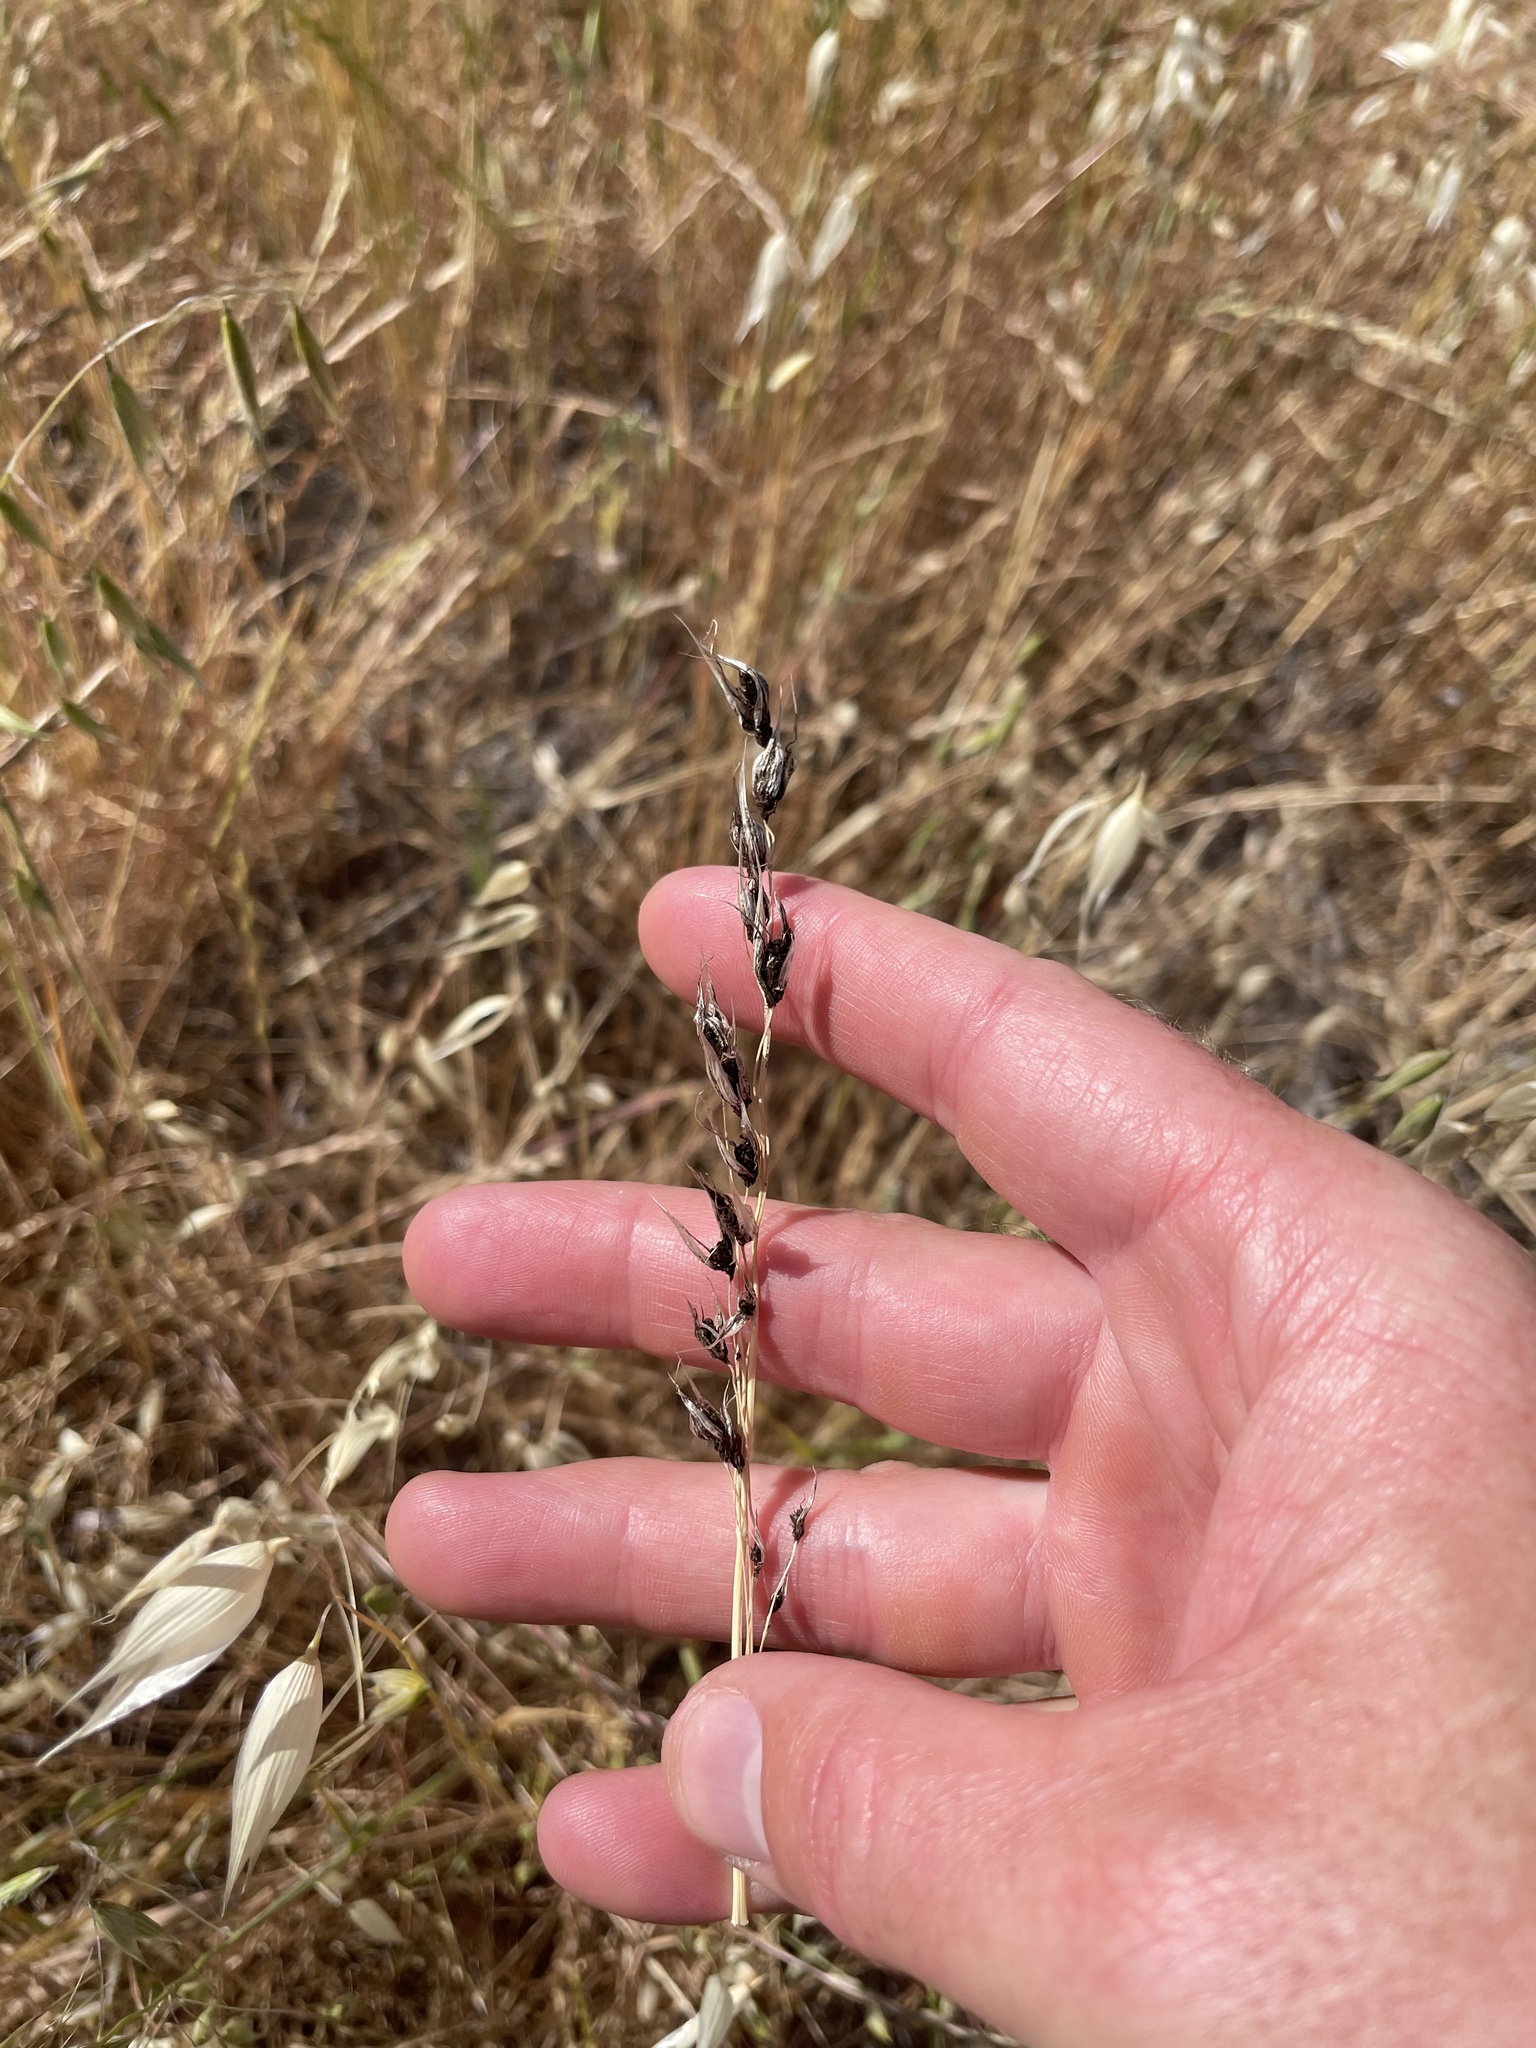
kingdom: Fungi
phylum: Basidiomycota
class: Ustilaginomycetes
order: Ustilaginales
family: Ustilaginaceae
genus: Ustilago
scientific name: Ustilago avenae
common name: Loose smut of oats & oat grass
